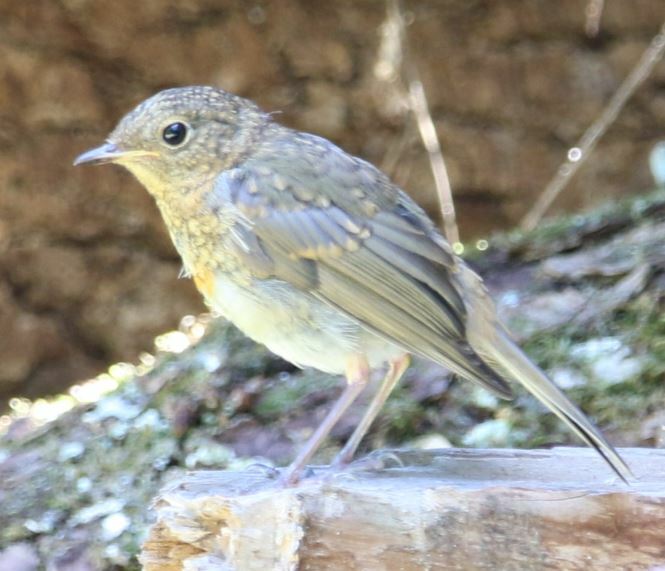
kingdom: Animalia
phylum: Chordata
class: Aves
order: Passeriformes
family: Muscicapidae
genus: Erithacus
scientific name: Erithacus rubecula
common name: European robin
